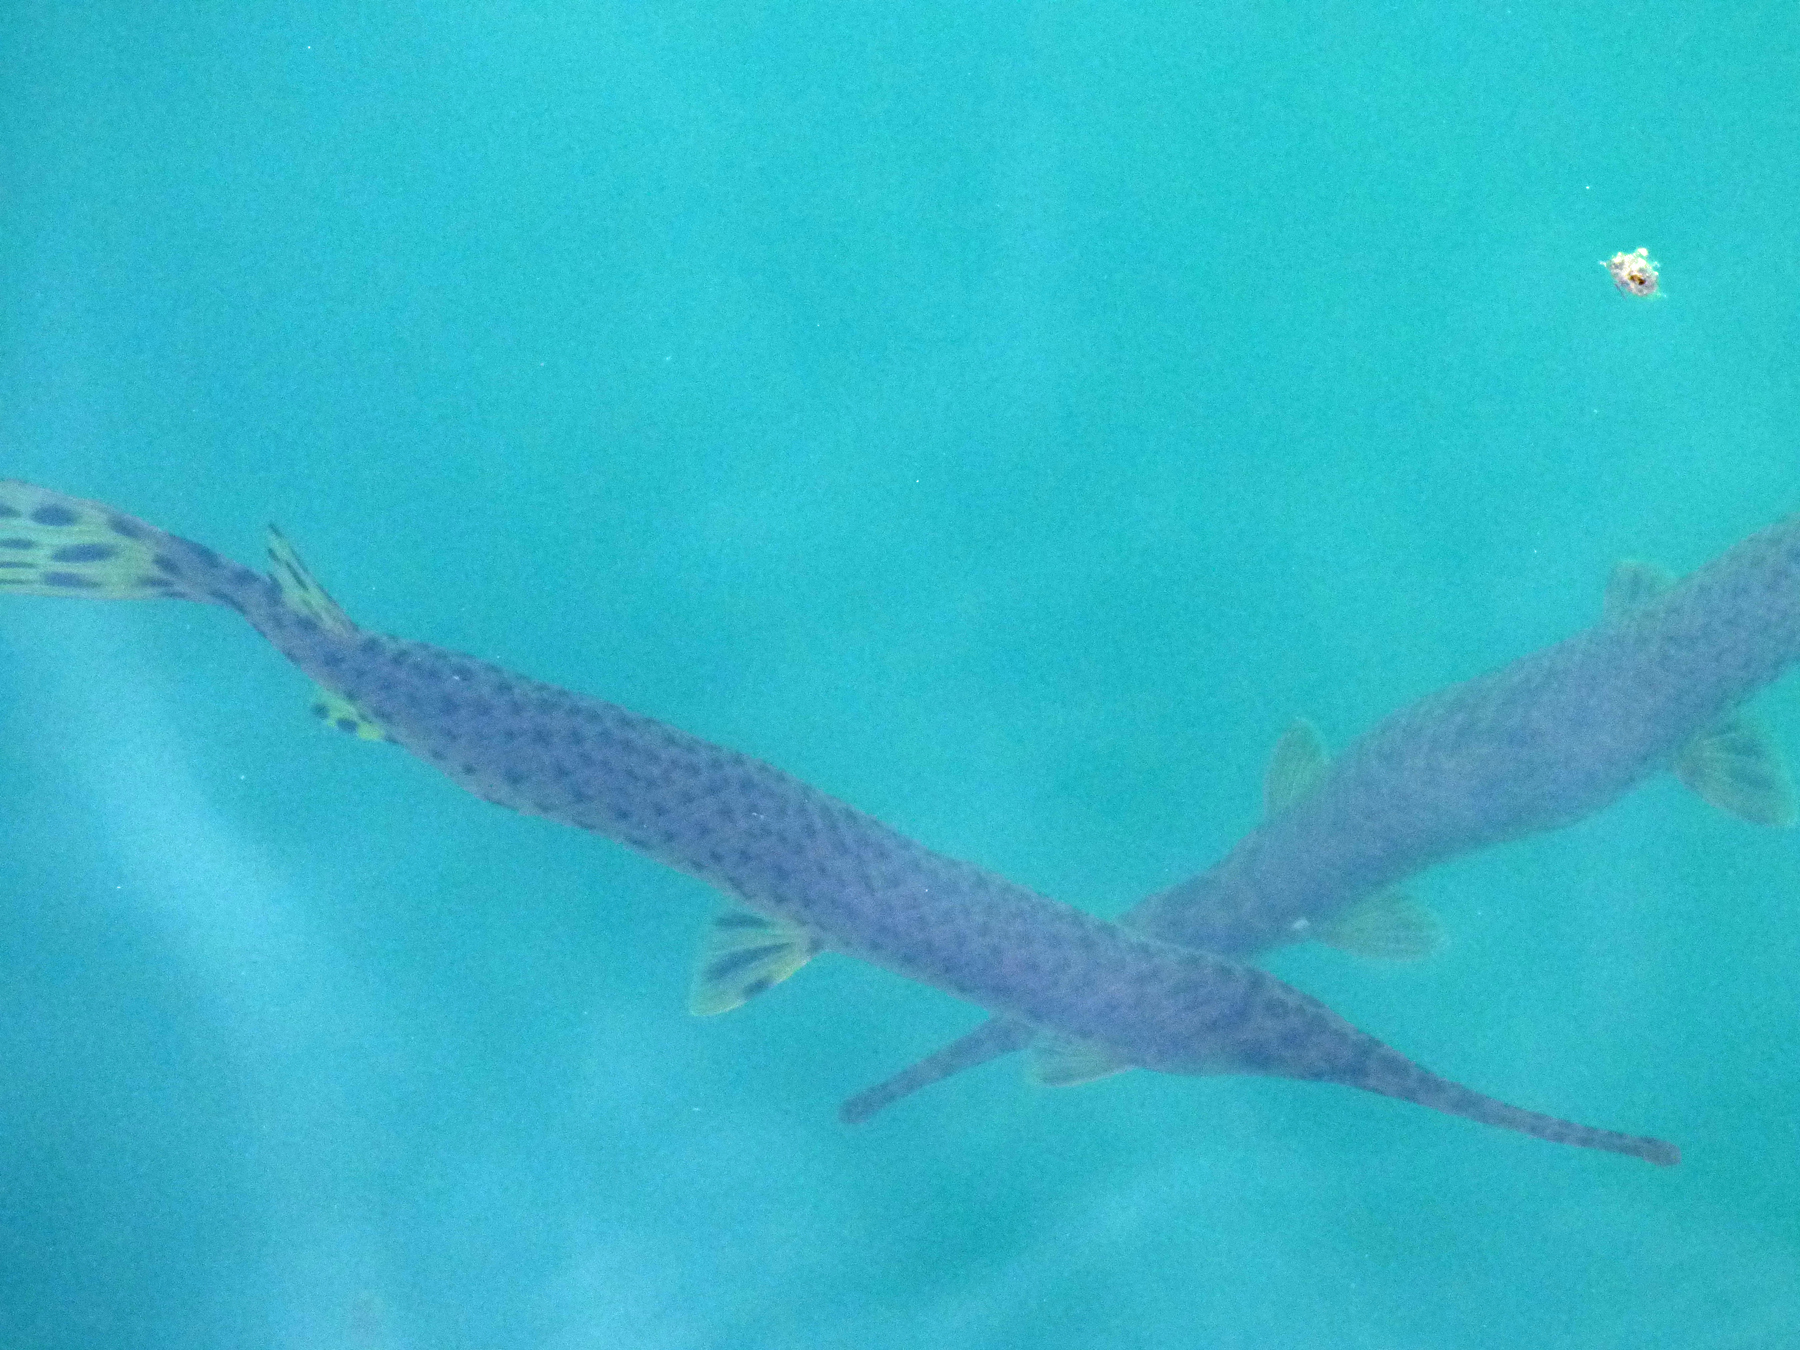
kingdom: Animalia
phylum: Chordata
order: Lepisosteiformes
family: Lepisosteidae
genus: Lepisosteus
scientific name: Lepisosteus osseus
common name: Longnose gar
